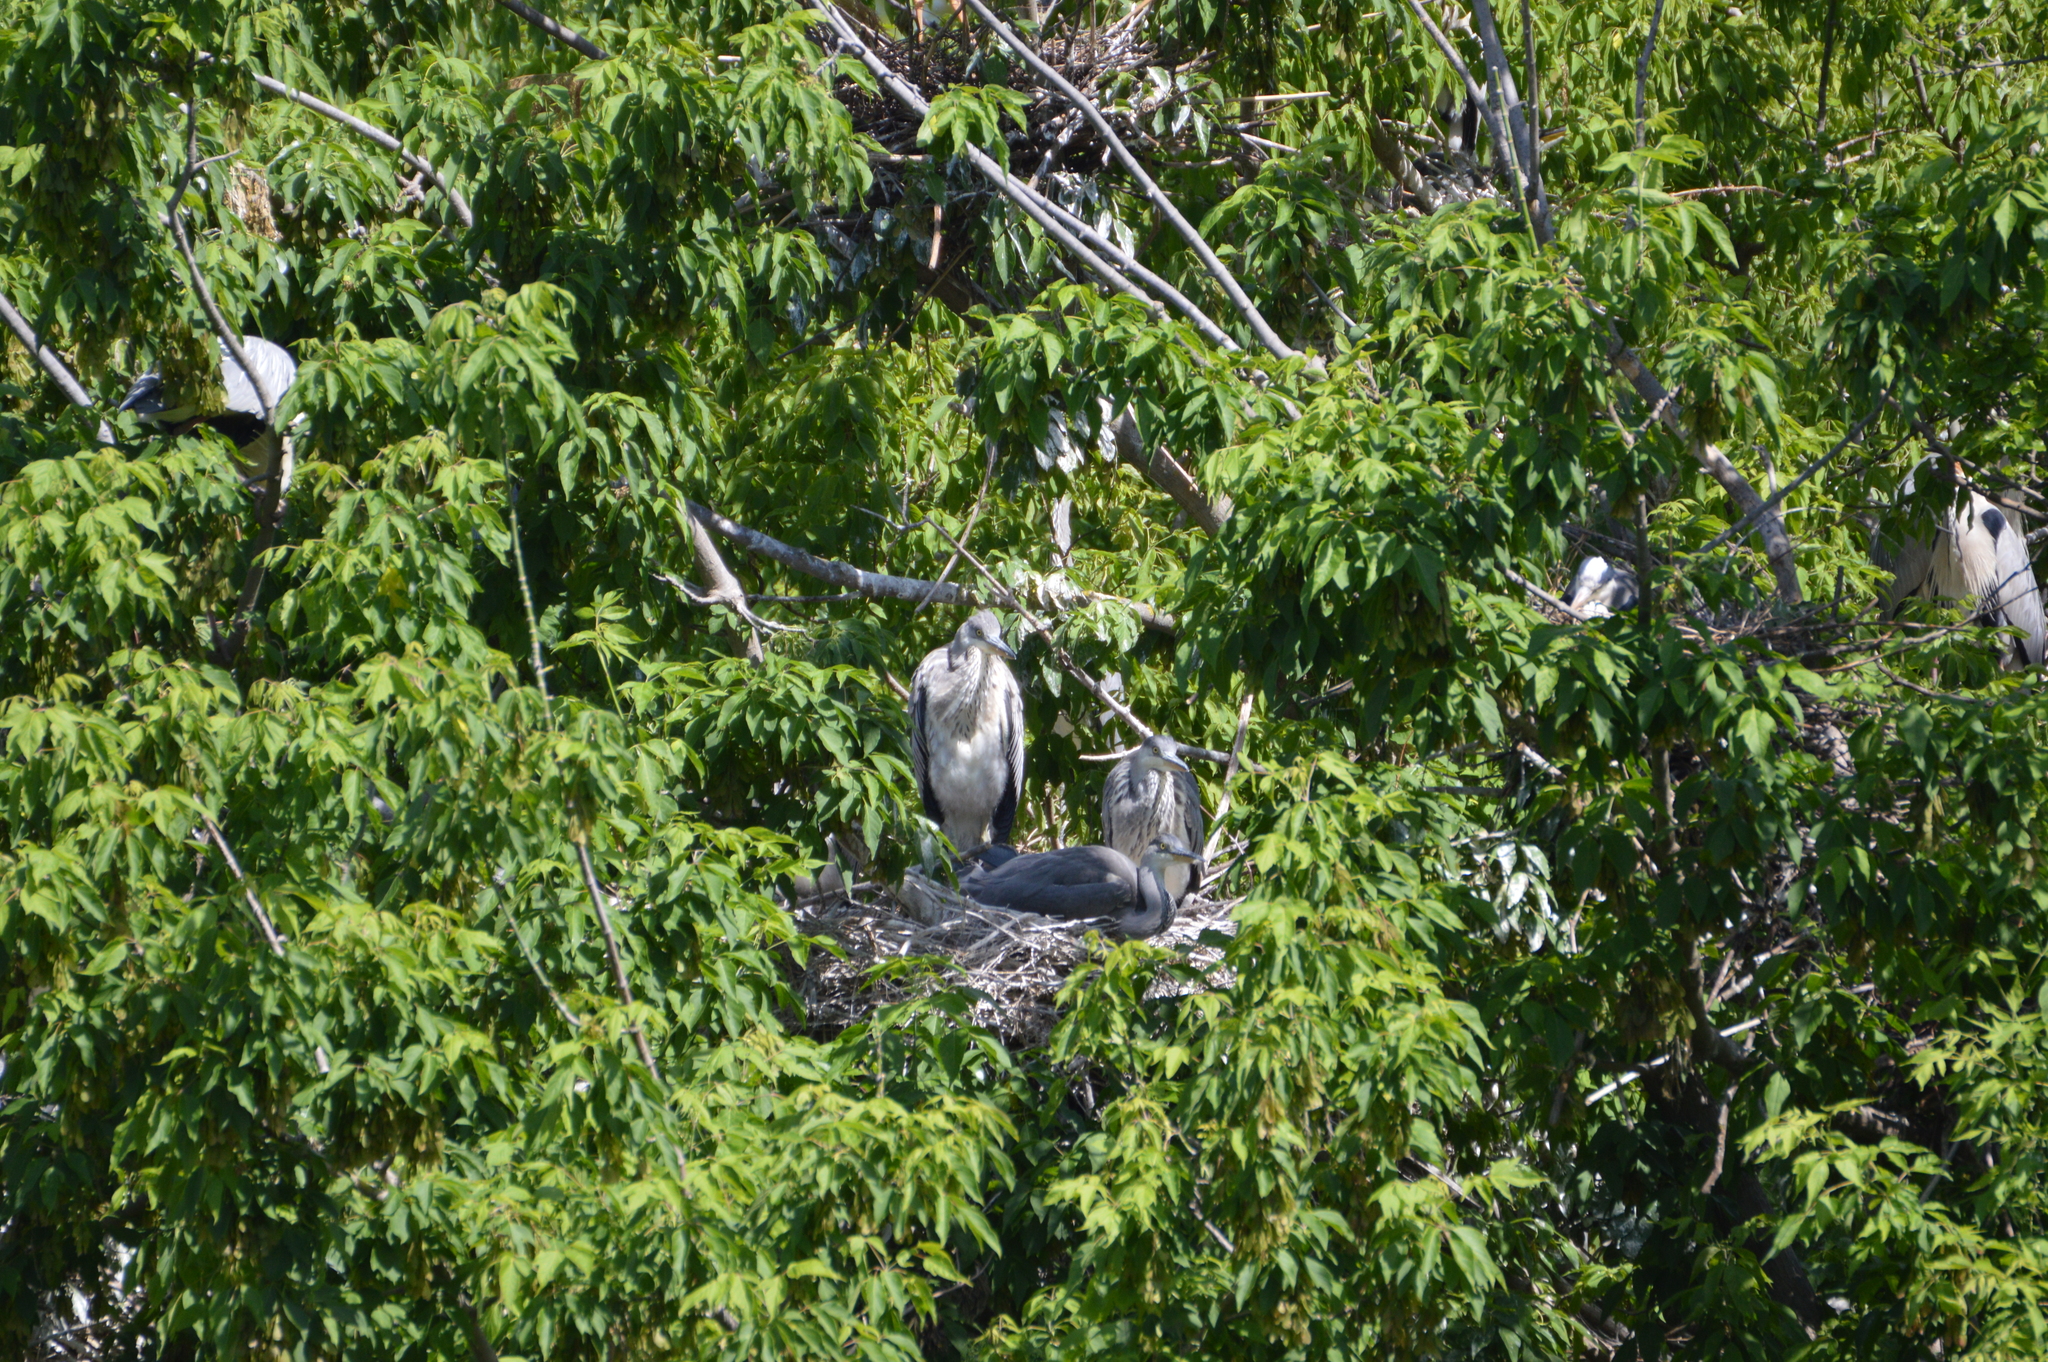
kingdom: Animalia
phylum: Chordata
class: Aves
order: Pelecaniformes
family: Ardeidae
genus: Ardea
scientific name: Ardea cinerea
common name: Grey heron
